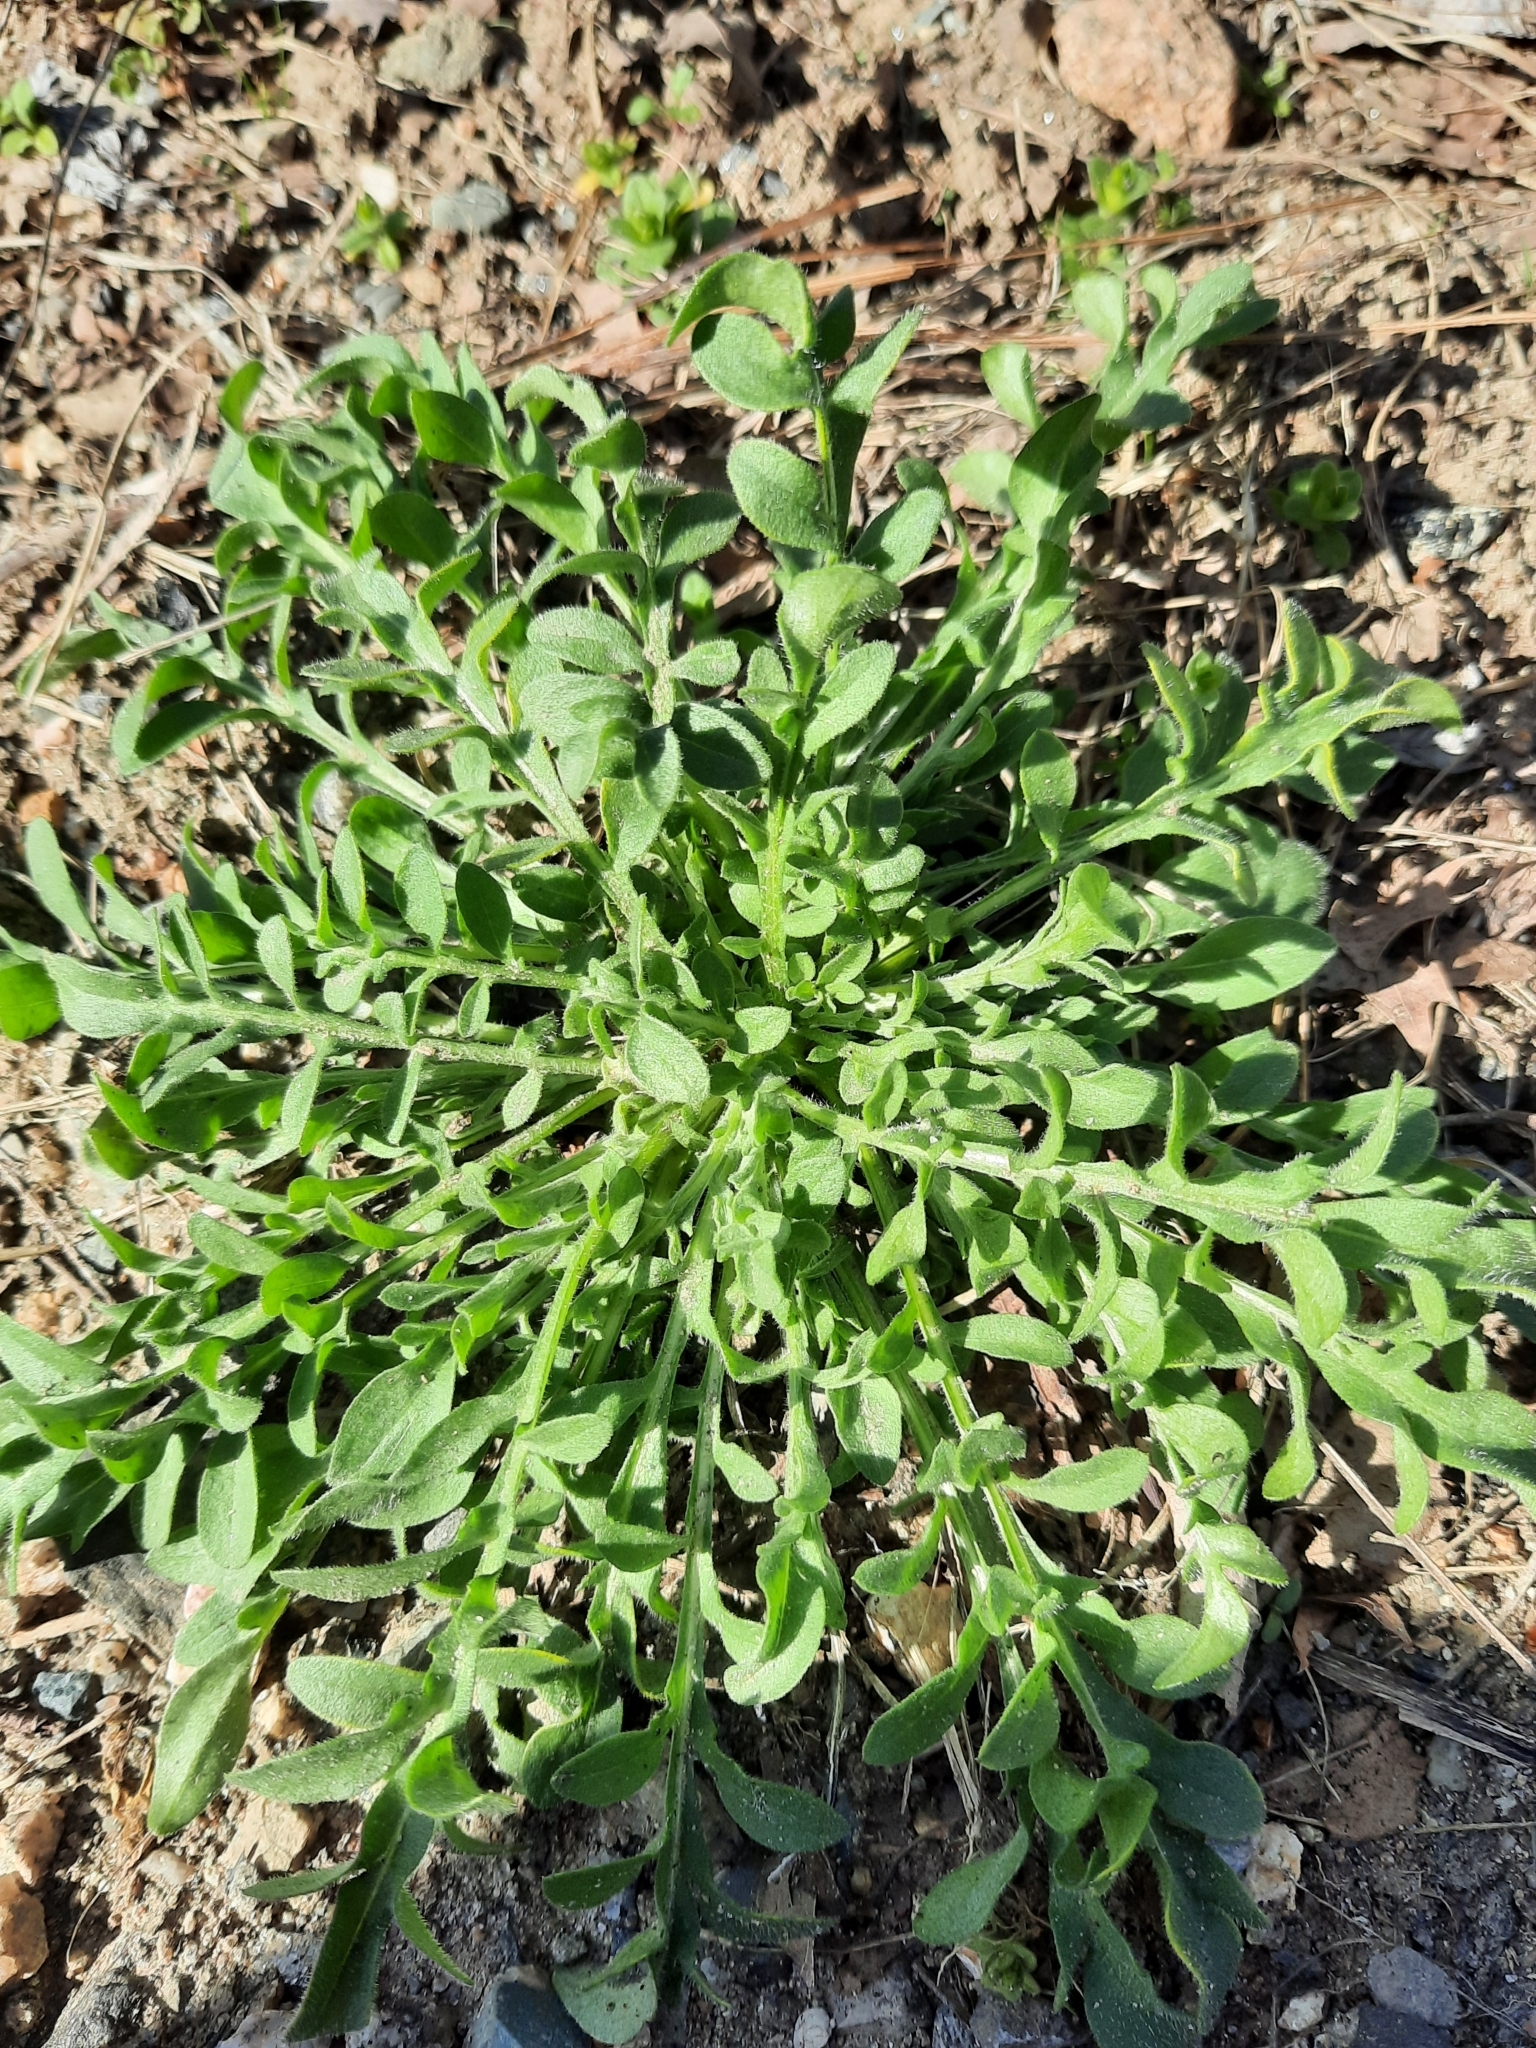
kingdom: Plantae
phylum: Tracheophyta
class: Magnoliopsida
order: Asterales
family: Asteraceae
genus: Centaurea
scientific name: Centaurea stoebe
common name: Spotted knapweed
